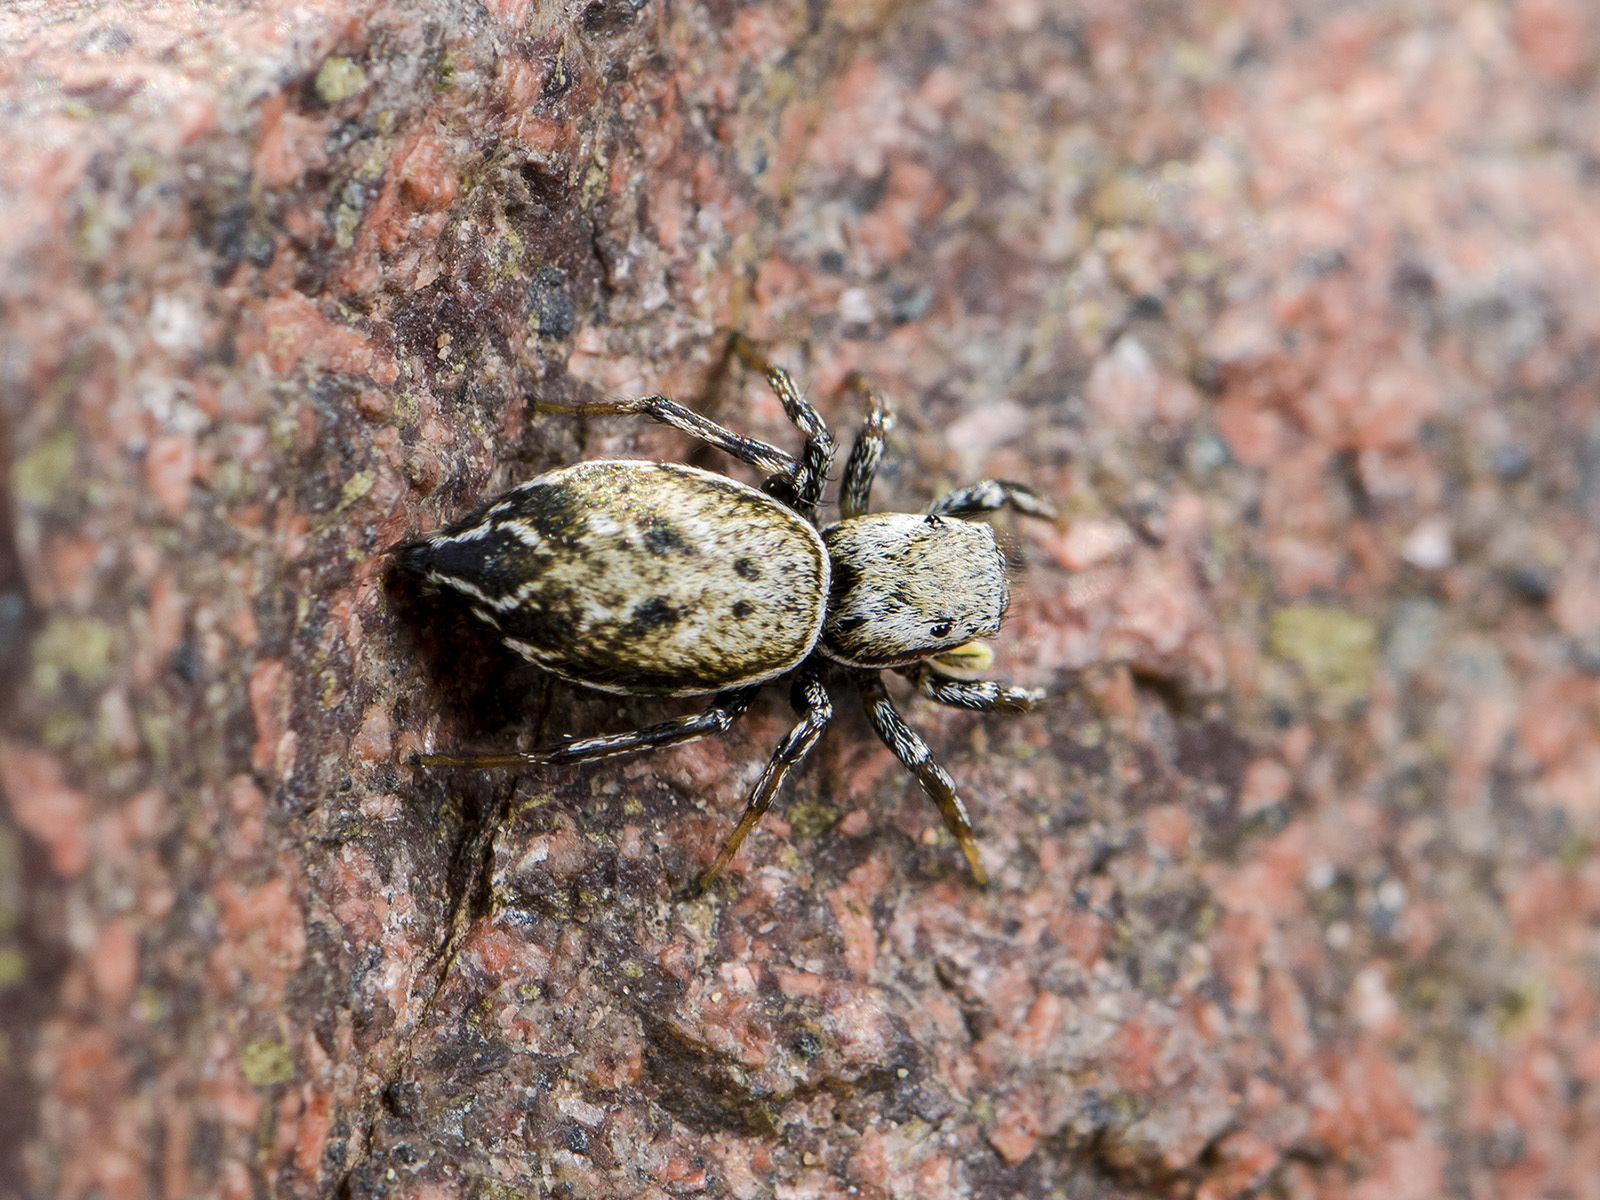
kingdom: Animalia
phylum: Arthropoda
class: Arachnida
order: Araneae
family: Salticidae
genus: Heliophanus
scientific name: Heliophanus potanini
